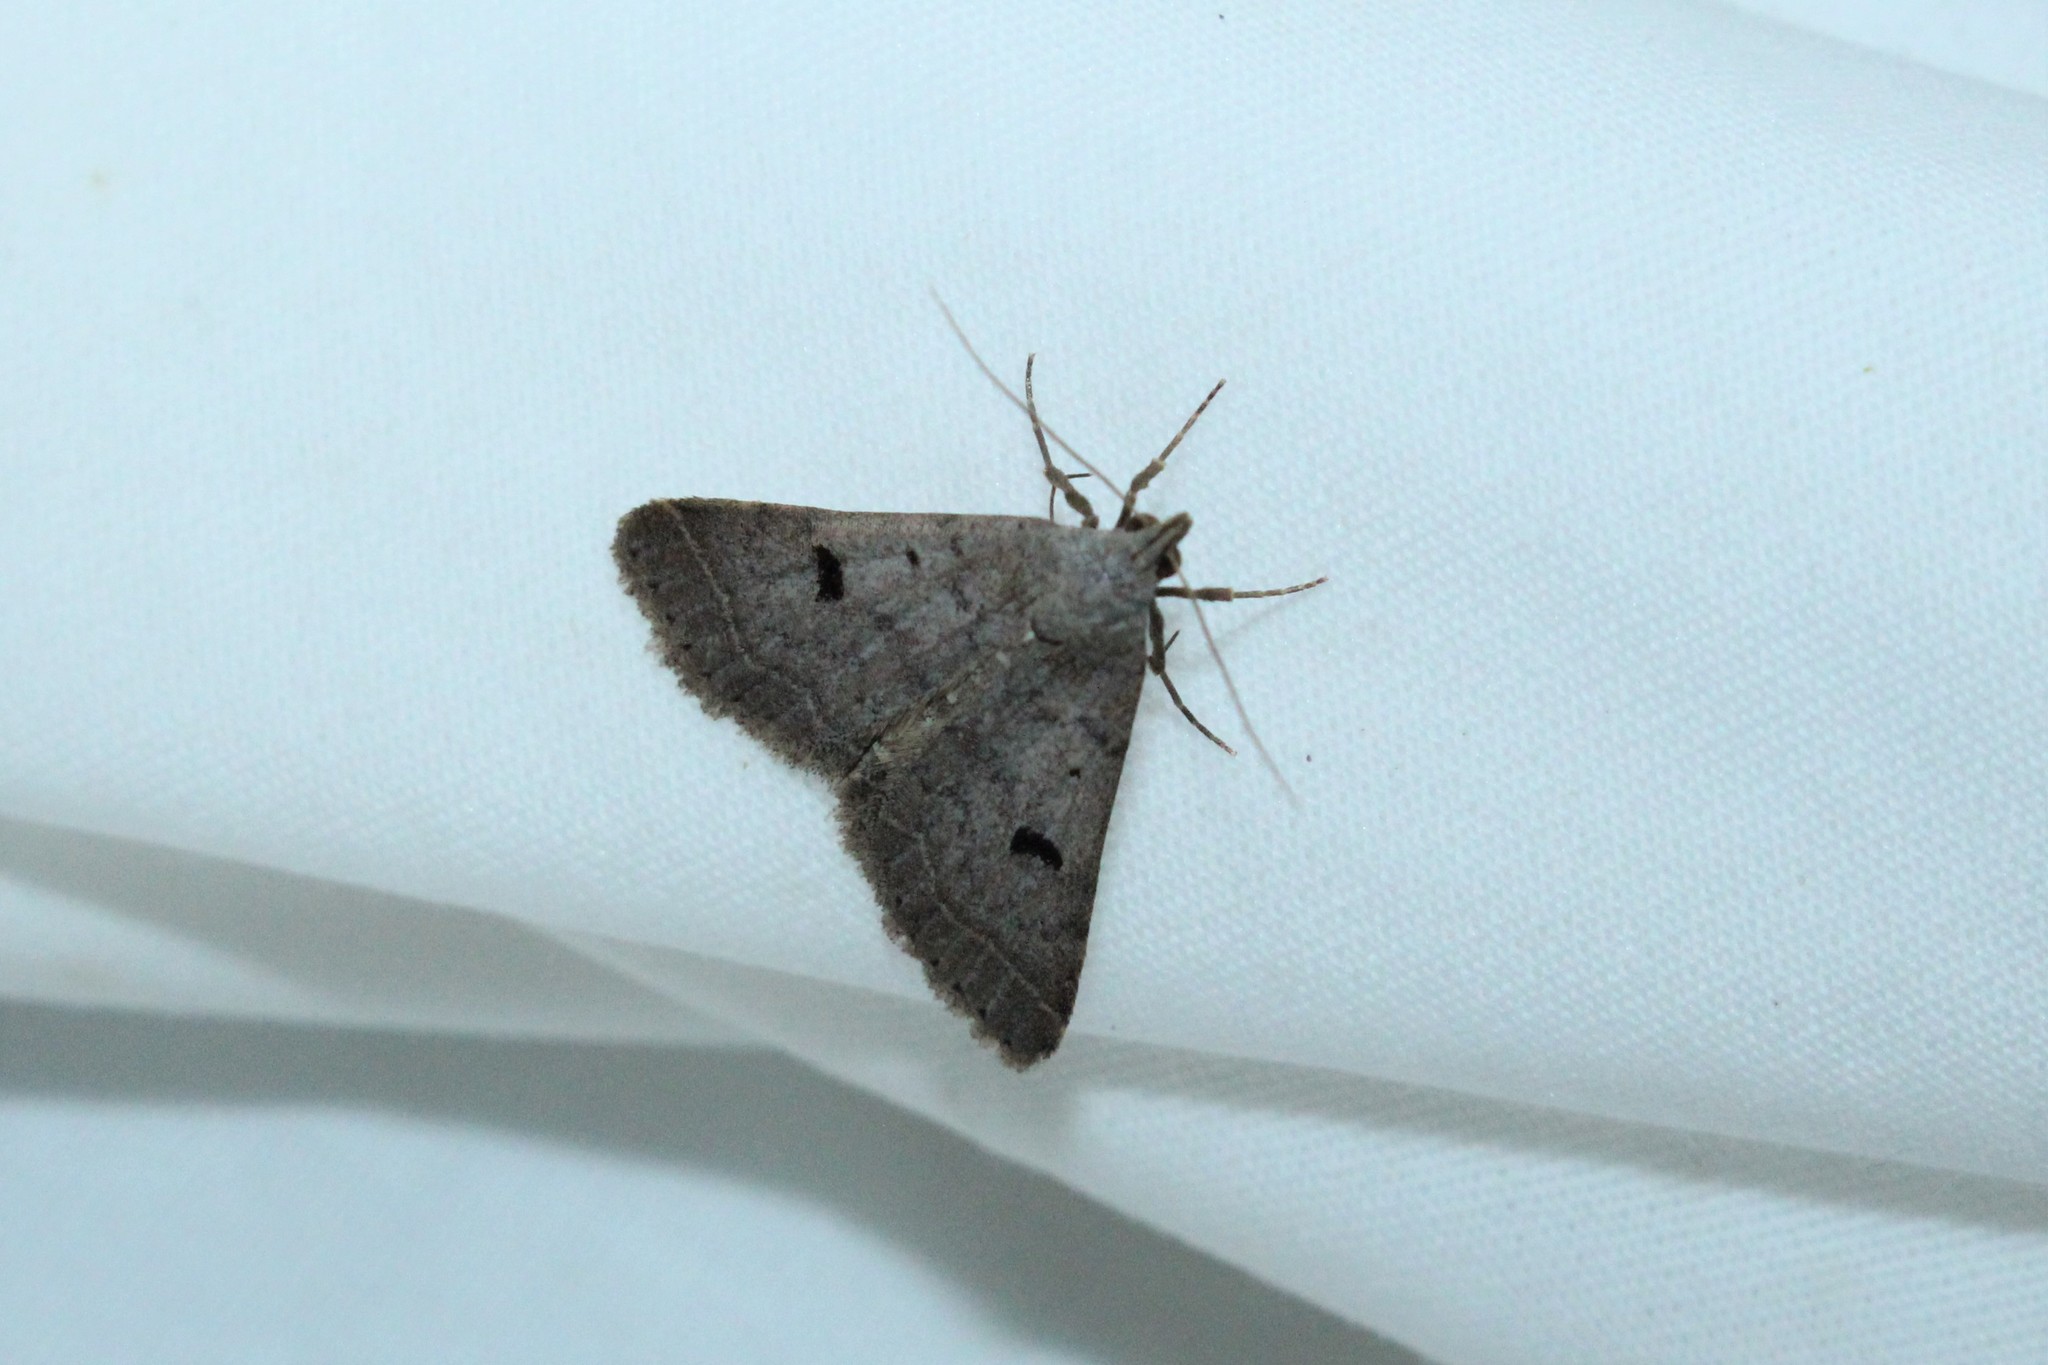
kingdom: Animalia
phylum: Arthropoda
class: Insecta
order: Lepidoptera
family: Erebidae
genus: Bleptina
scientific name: Bleptina caradrinalis
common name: Bent-winged owlet
